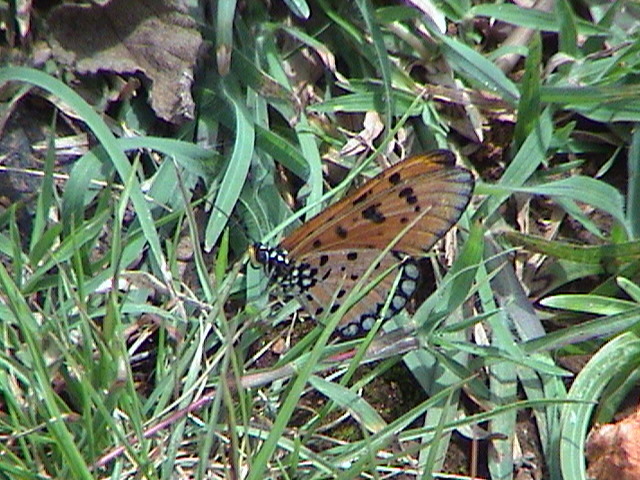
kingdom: Animalia
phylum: Arthropoda
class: Insecta
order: Lepidoptera
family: Nymphalidae
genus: Acraea
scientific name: Acraea terpsicore
